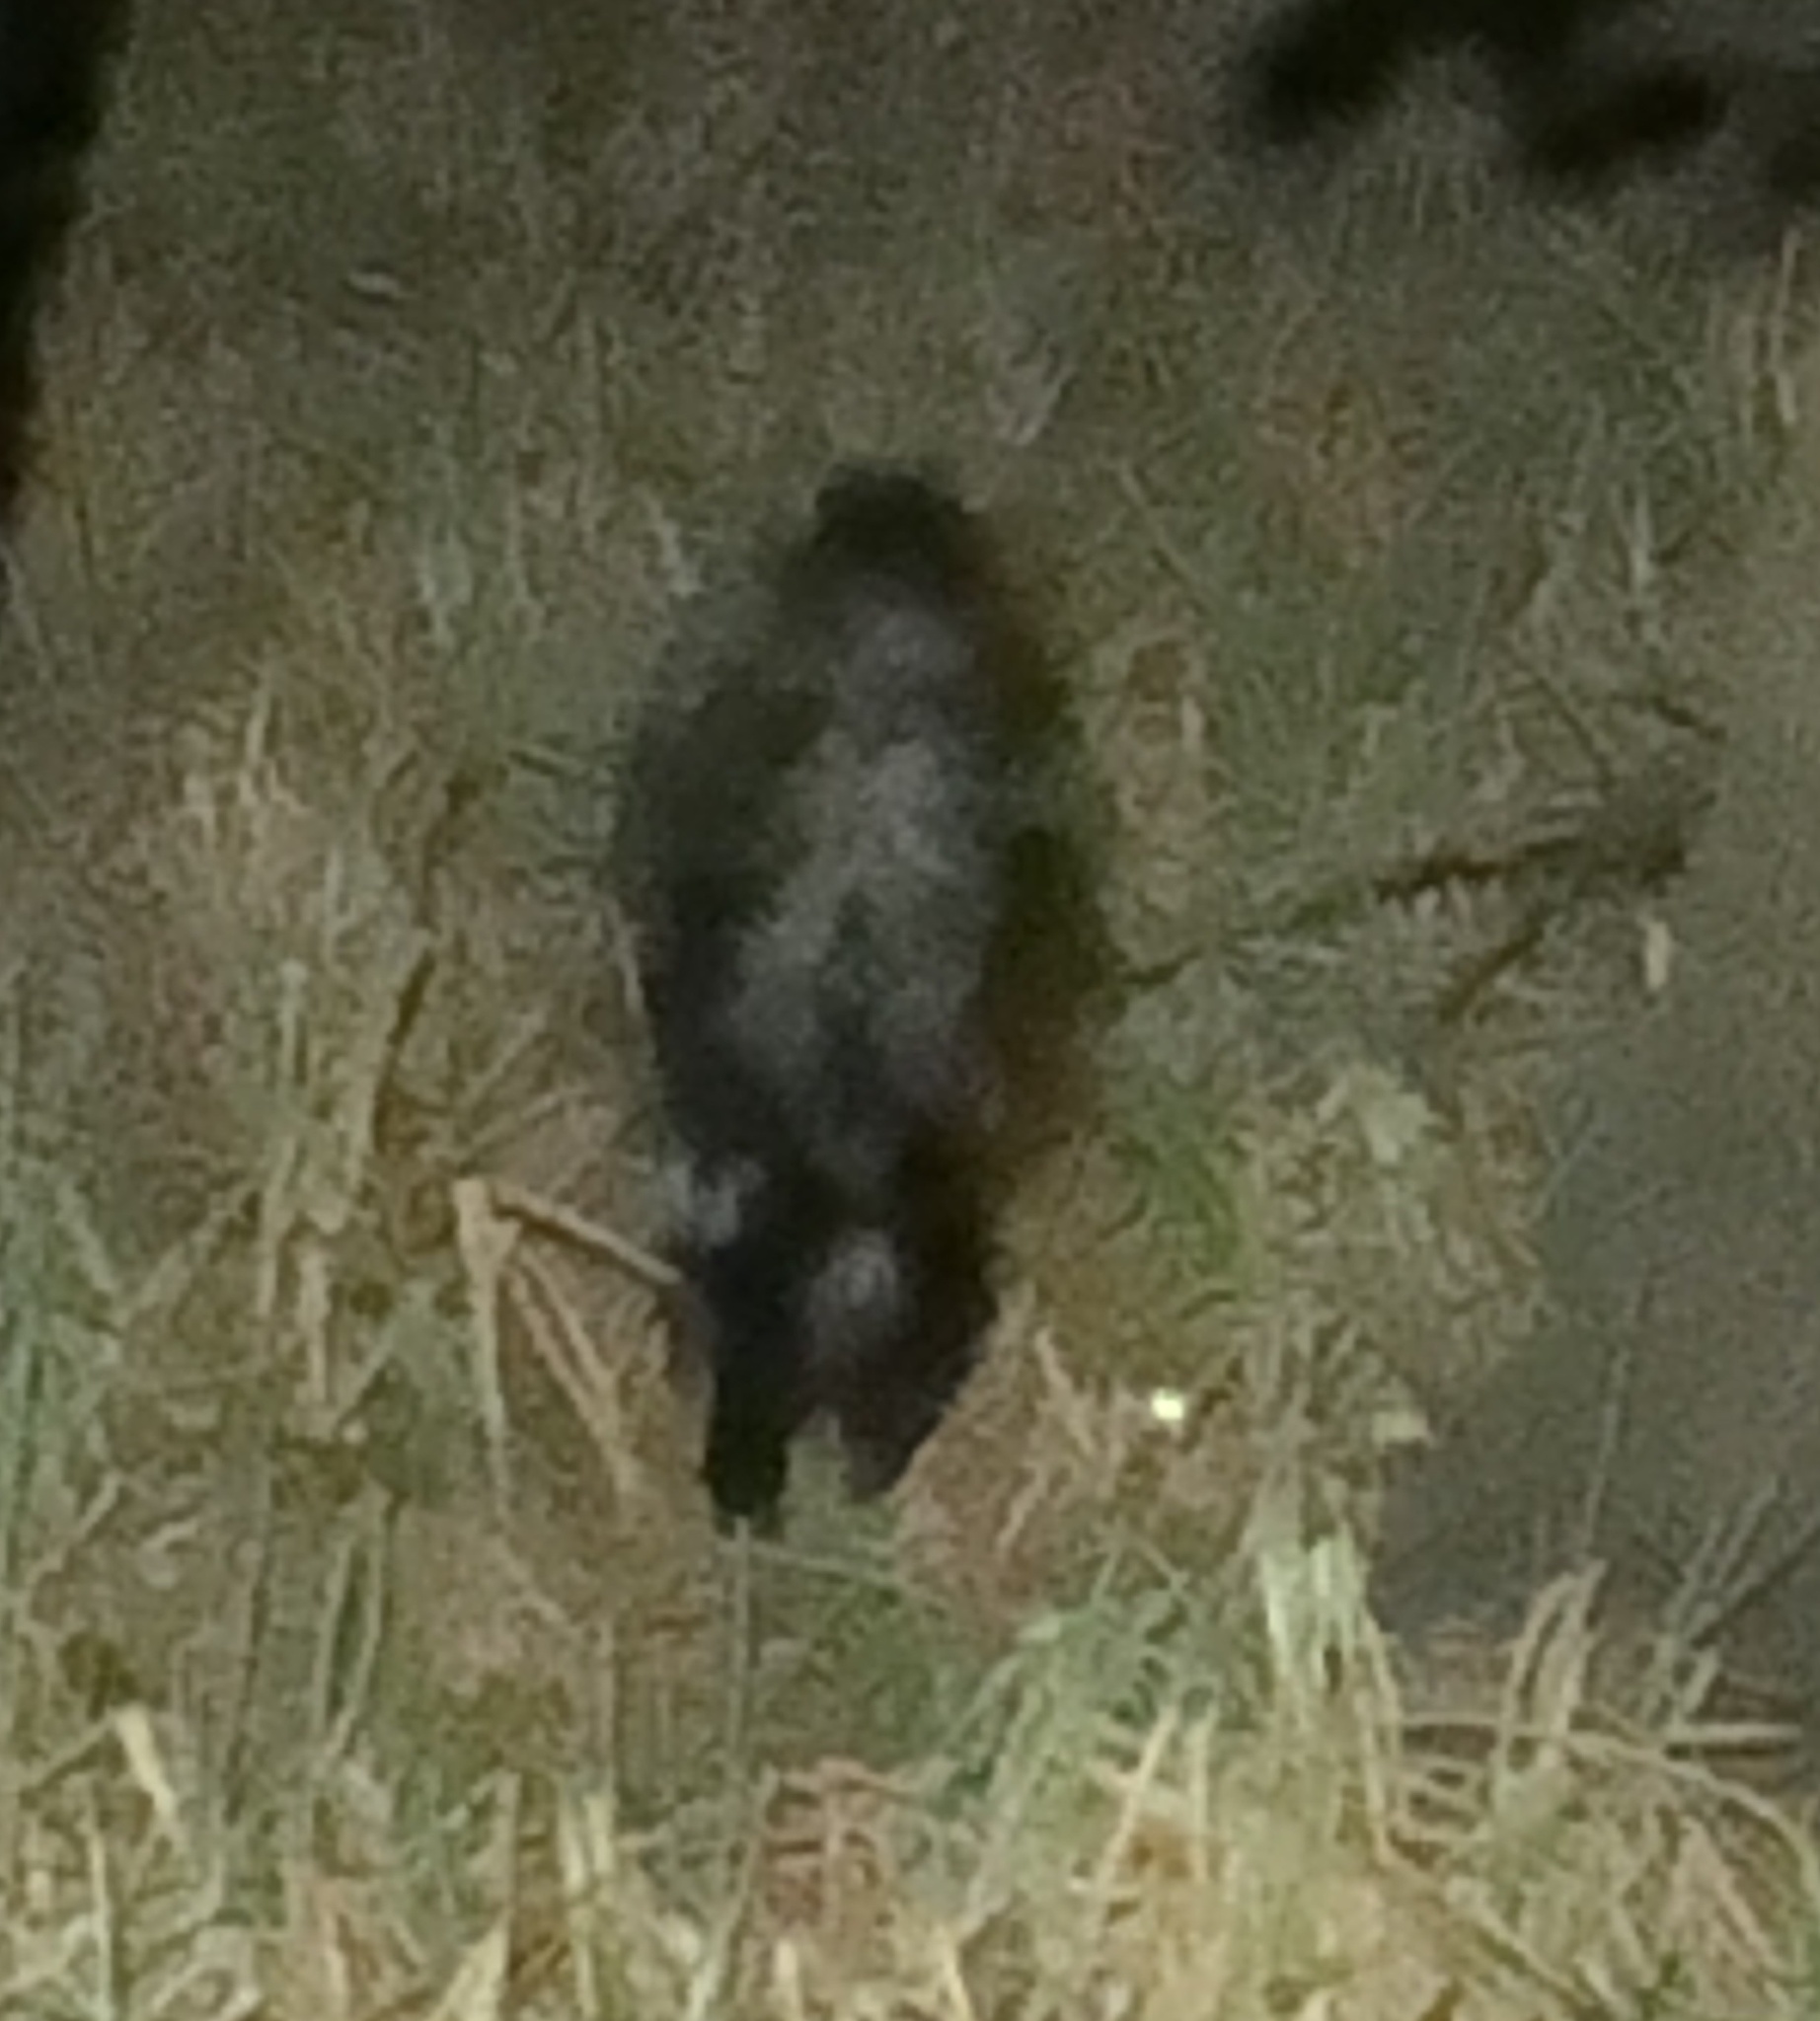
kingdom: Animalia
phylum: Chordata
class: Mammalia
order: Carnivora
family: Mephitidae
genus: Mephitis
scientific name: Mephitis mephitis
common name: Striped skunk
